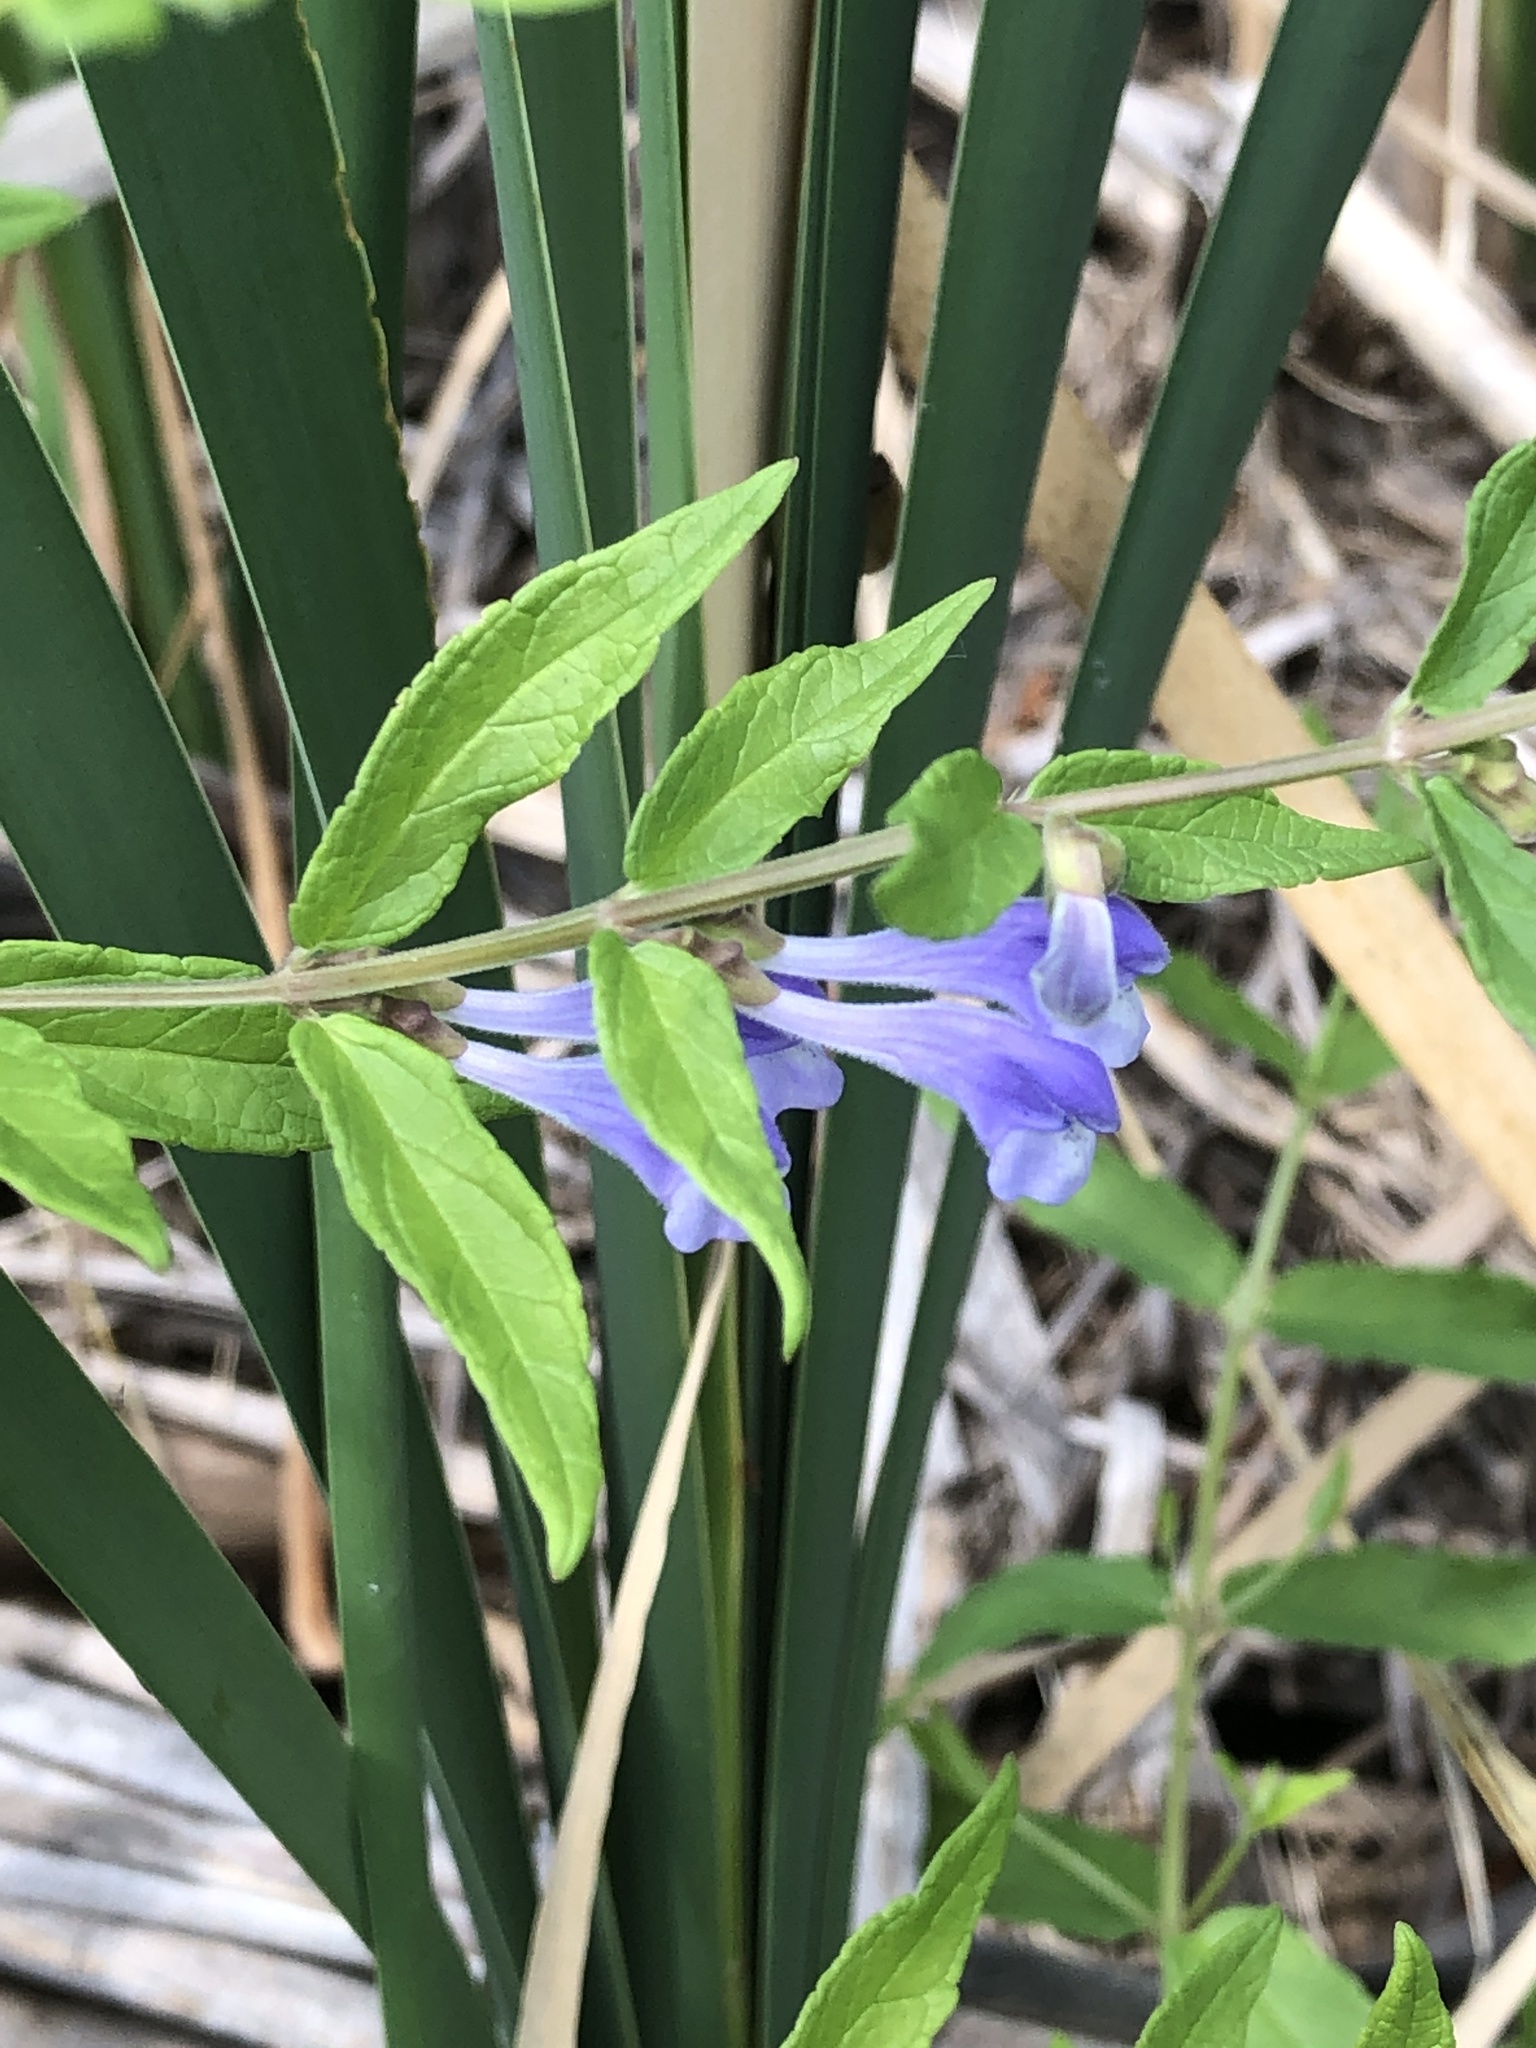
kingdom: Plantae
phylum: Tracheophyta
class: Magnoliopsida
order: Lamiales
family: Lamiaceae
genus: Scutellaria
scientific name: Scutellaria galericulata
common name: Skullcap
